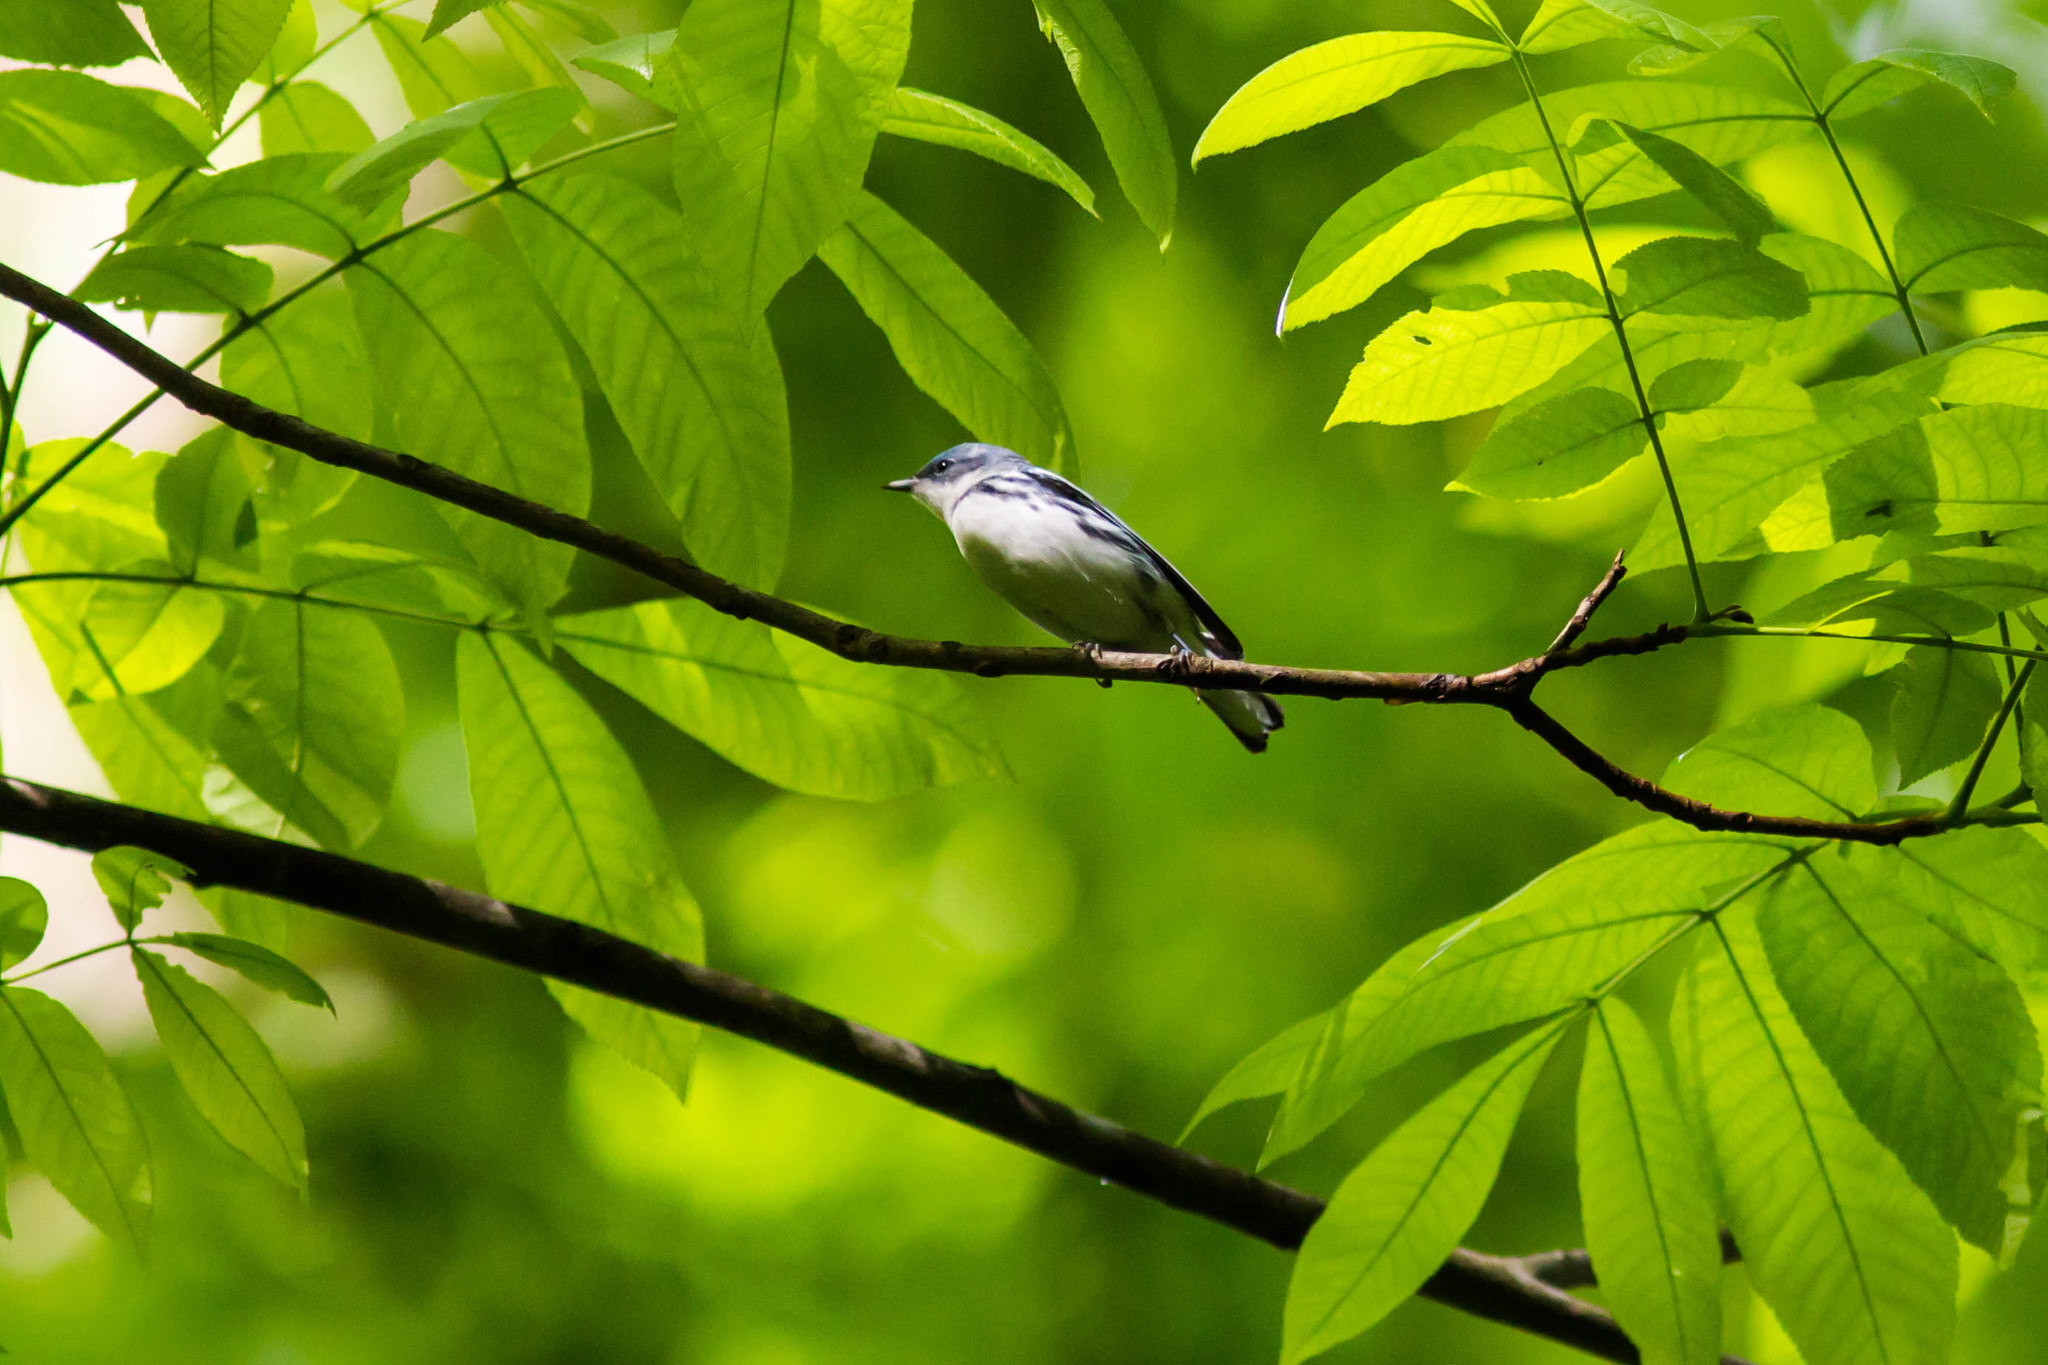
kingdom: Animalia
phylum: Chordata
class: Aves
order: Passeriformes
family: Parulidae
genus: Setophaga
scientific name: Setophaga cerulea
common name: Cerulean warbler
